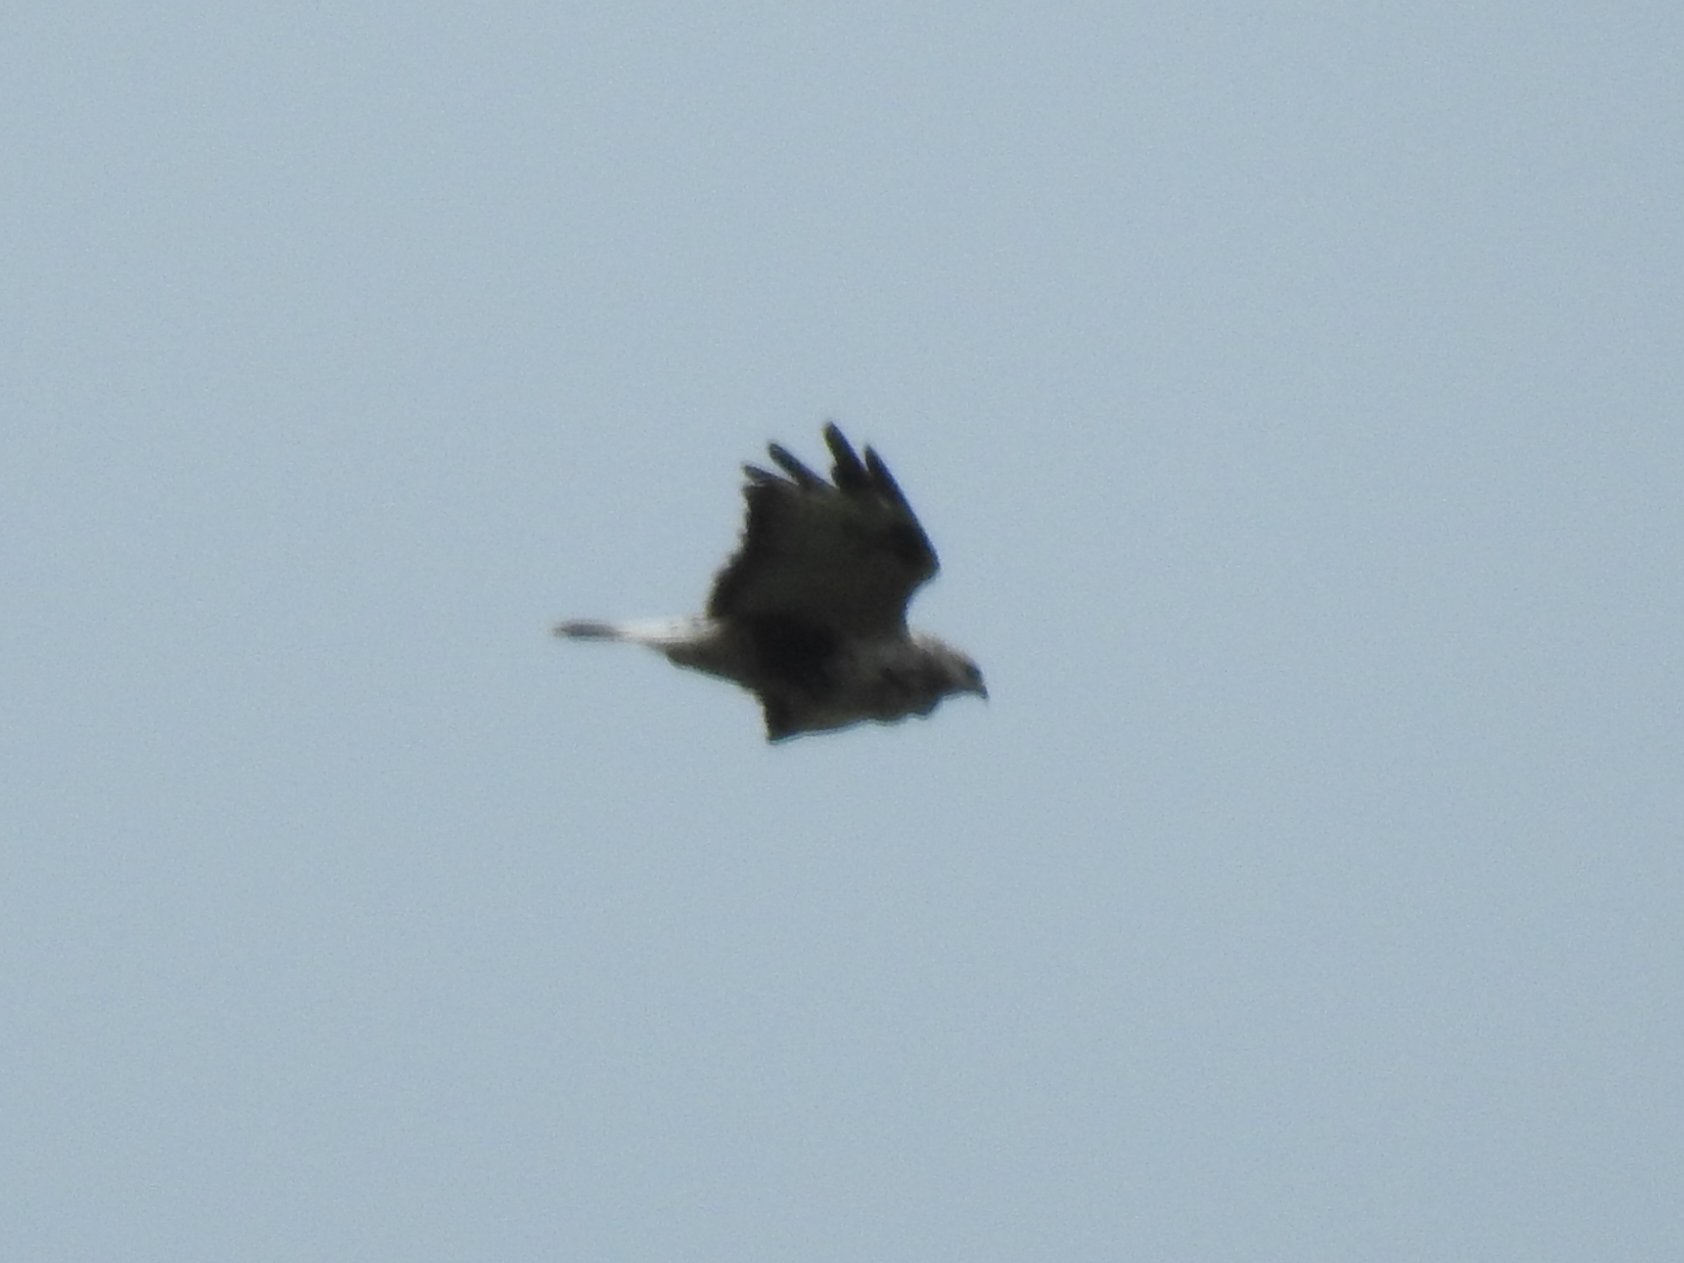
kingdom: Animalia
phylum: Chordata
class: Aves
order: Accipitriformes
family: Accipitridae
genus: Buteo
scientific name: Buteo lagopus
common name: Rough-legged buzzard
